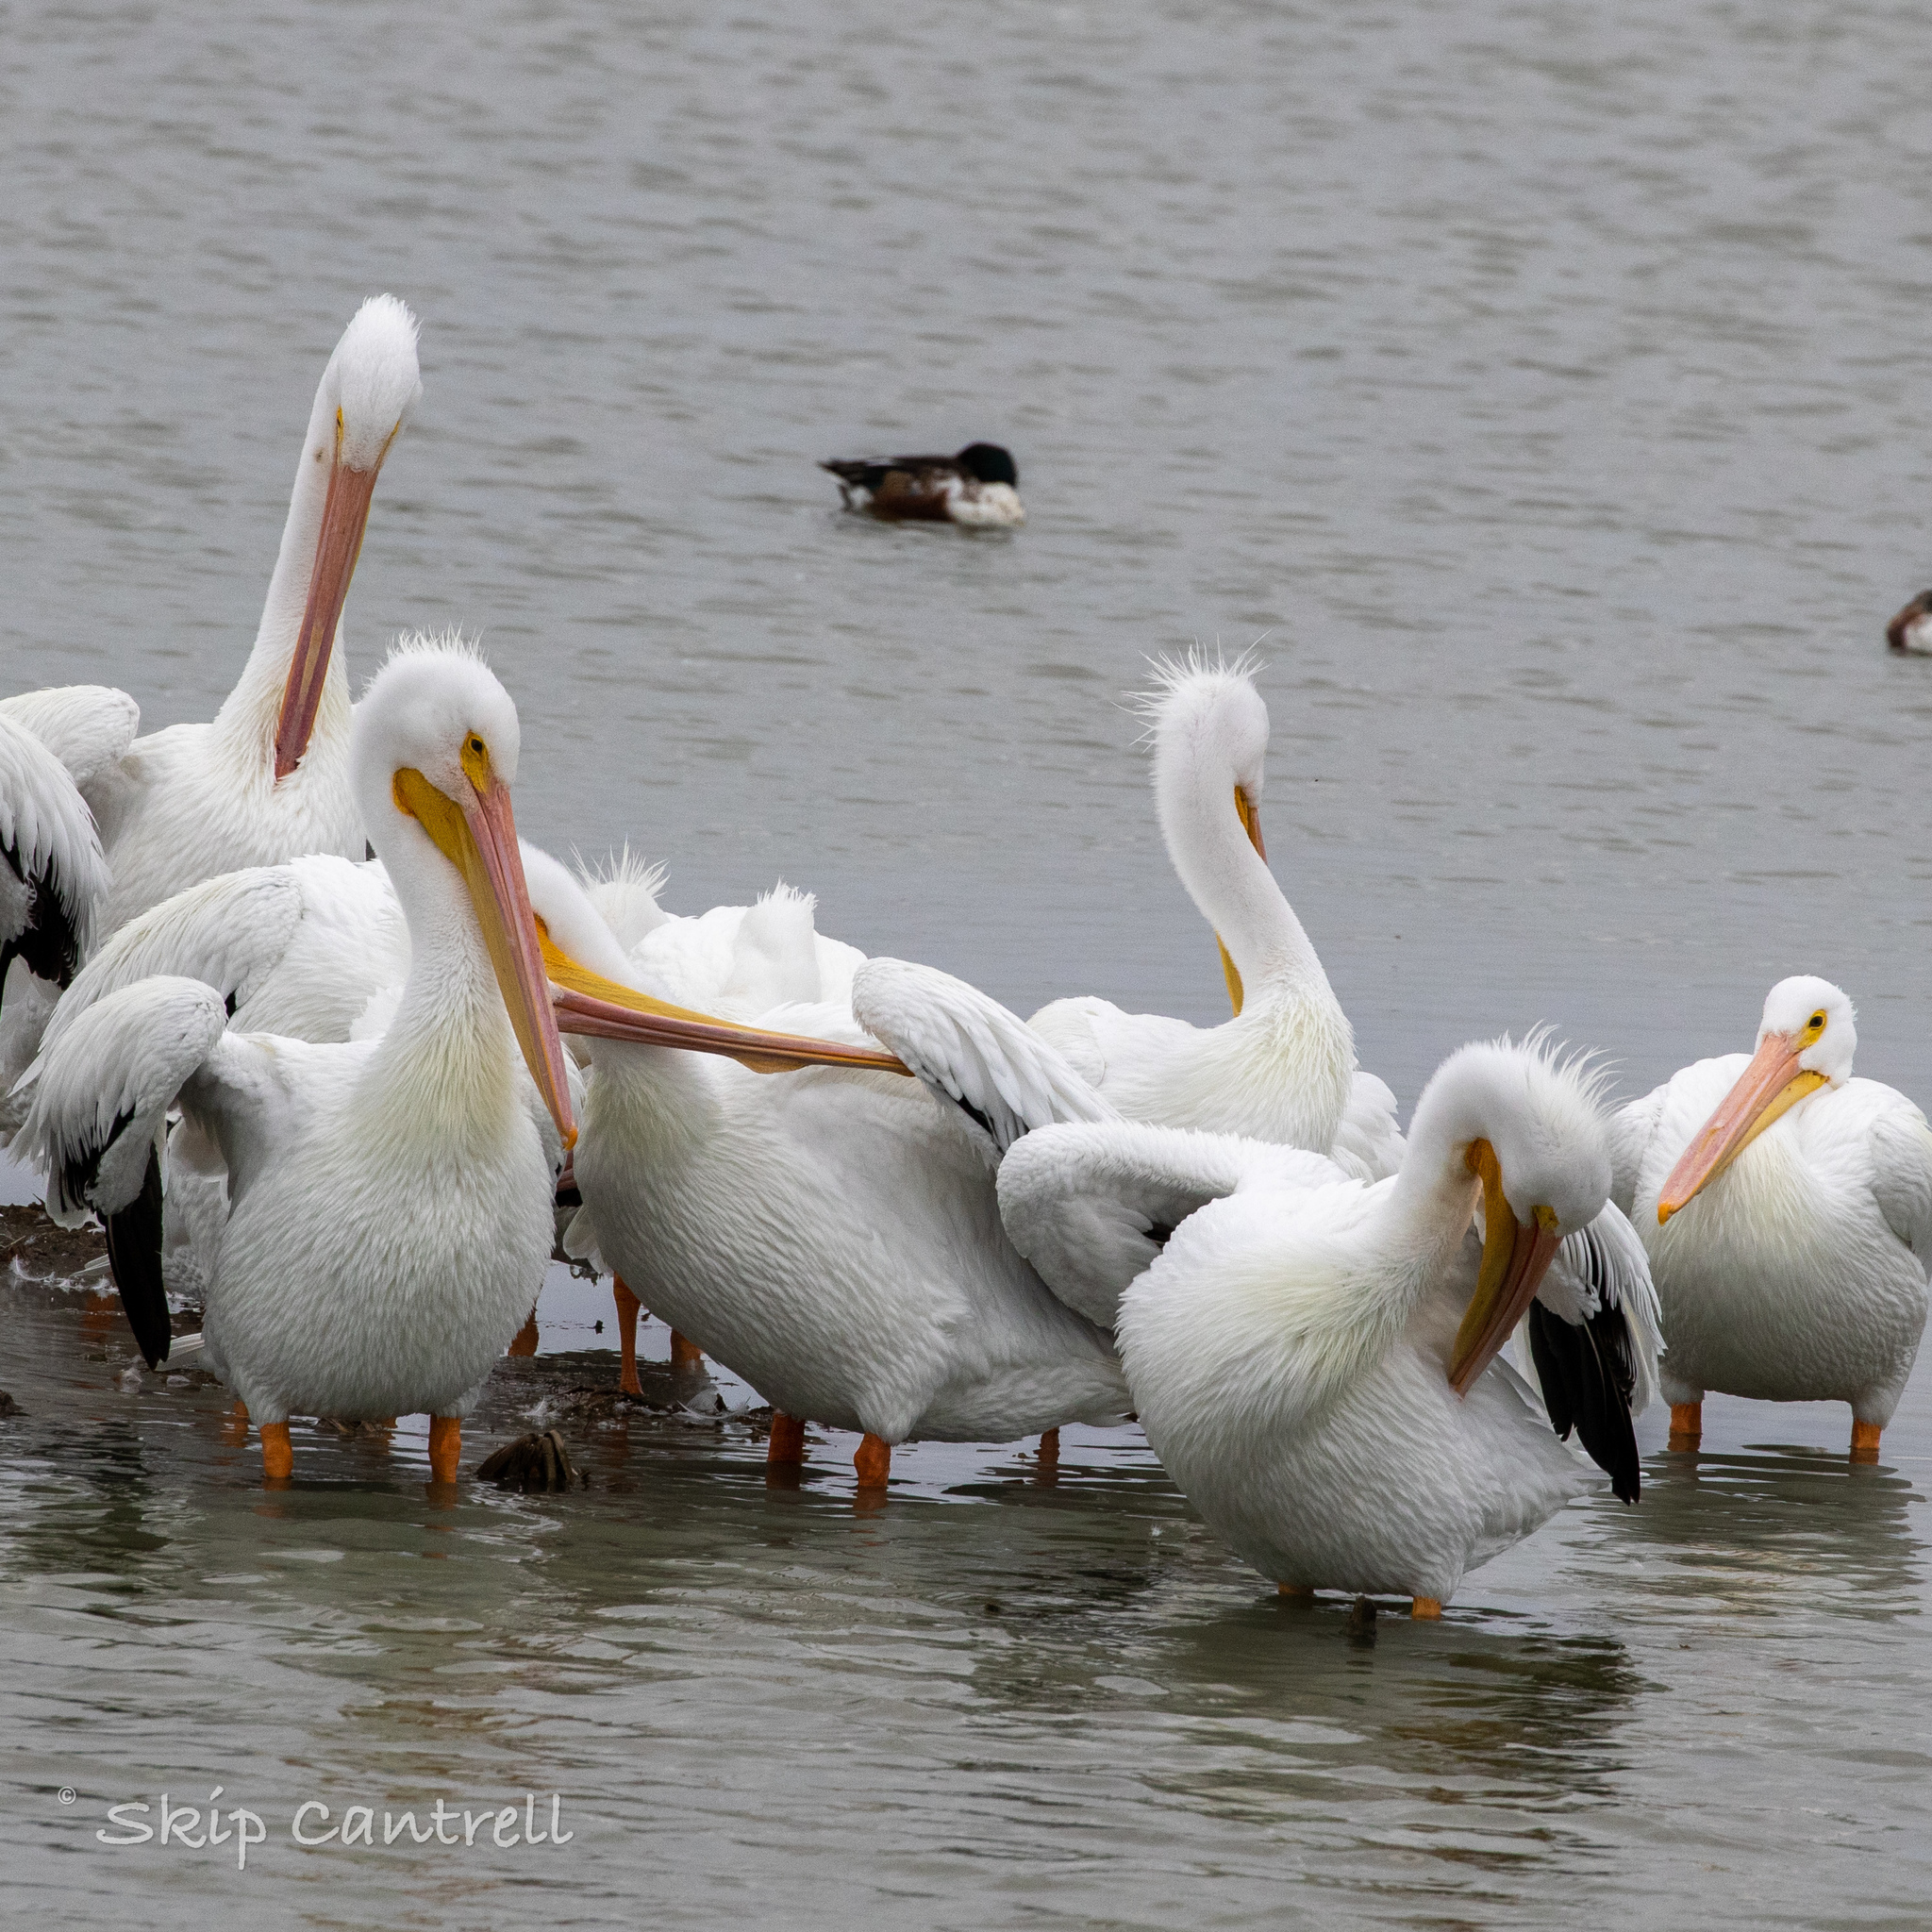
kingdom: Animalia
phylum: Chordata
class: Aves
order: Pelecaniformes
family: Pelecanidae
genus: Pelecanus
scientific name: Pelecanus erythrorhynchos
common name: American white pelican
